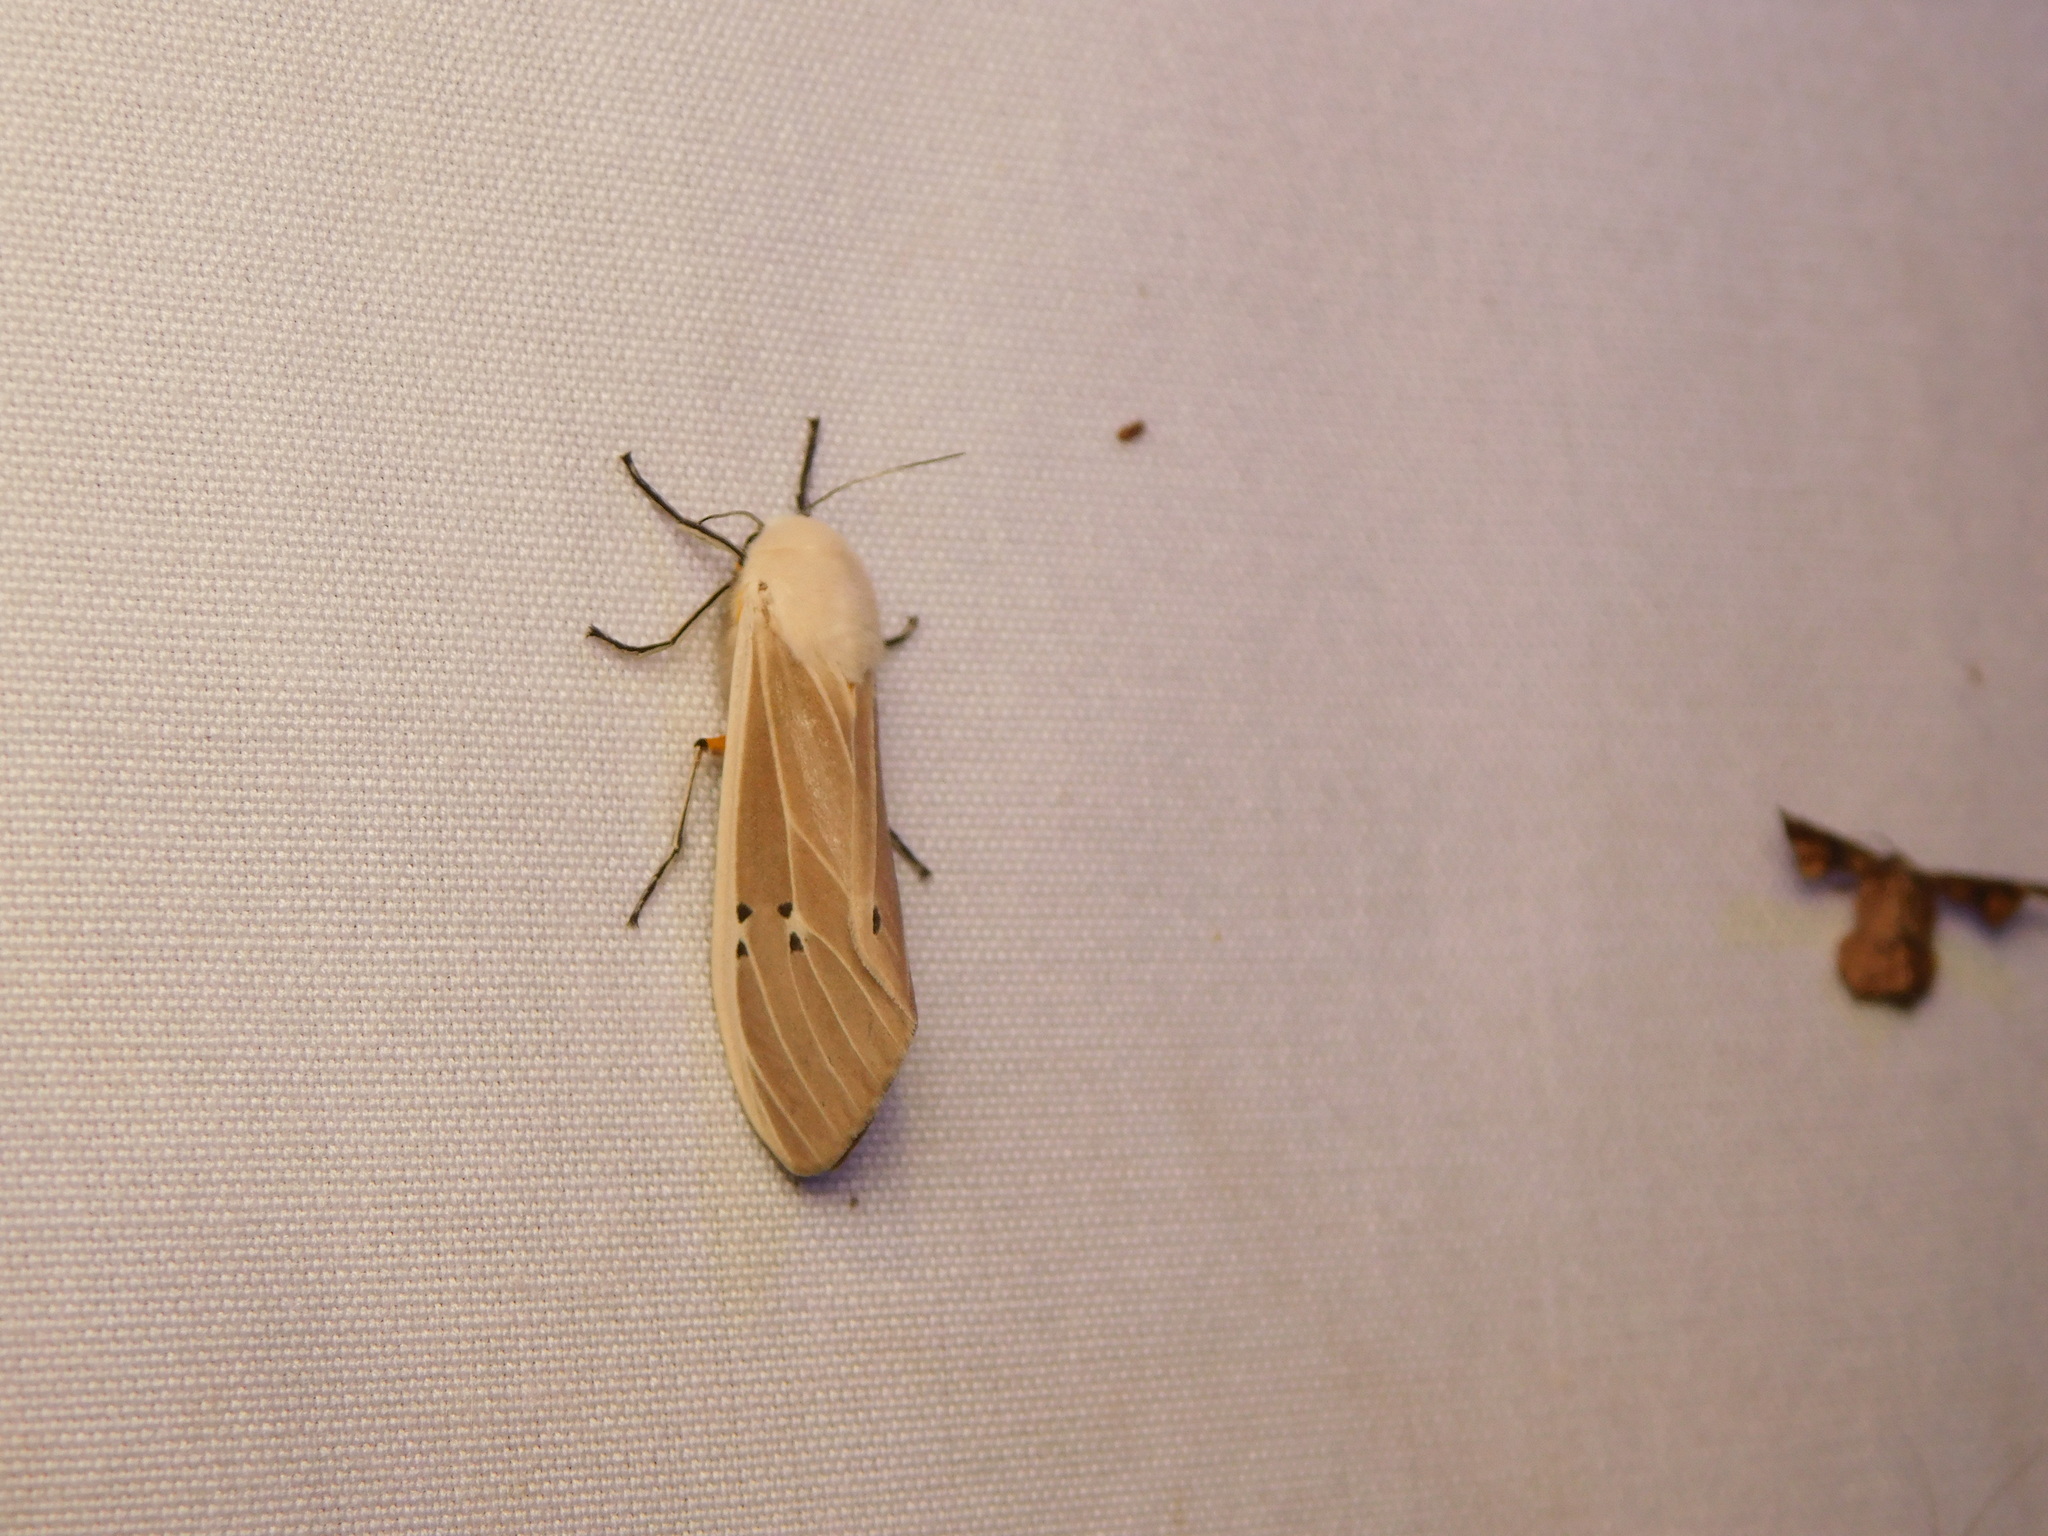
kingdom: Animalia
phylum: Arthropoda
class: Insecta
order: Lepidoptera
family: Erebidae
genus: Creatonotos
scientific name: Creatonotos transiens
